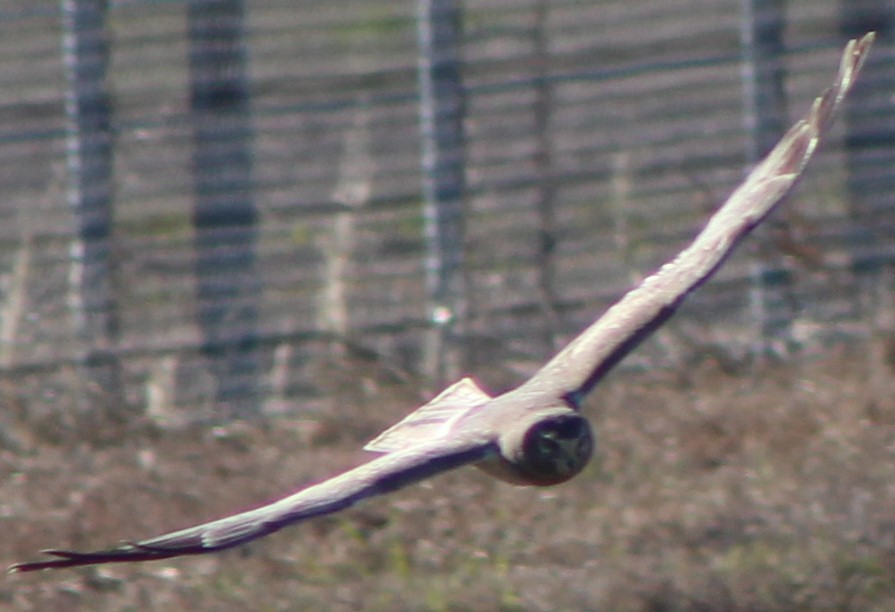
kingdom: Animalia
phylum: Chordata
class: Aves
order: Accipitriformes
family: Accipitridae
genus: Circus
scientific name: Circus cyaneus
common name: Hen harrier
